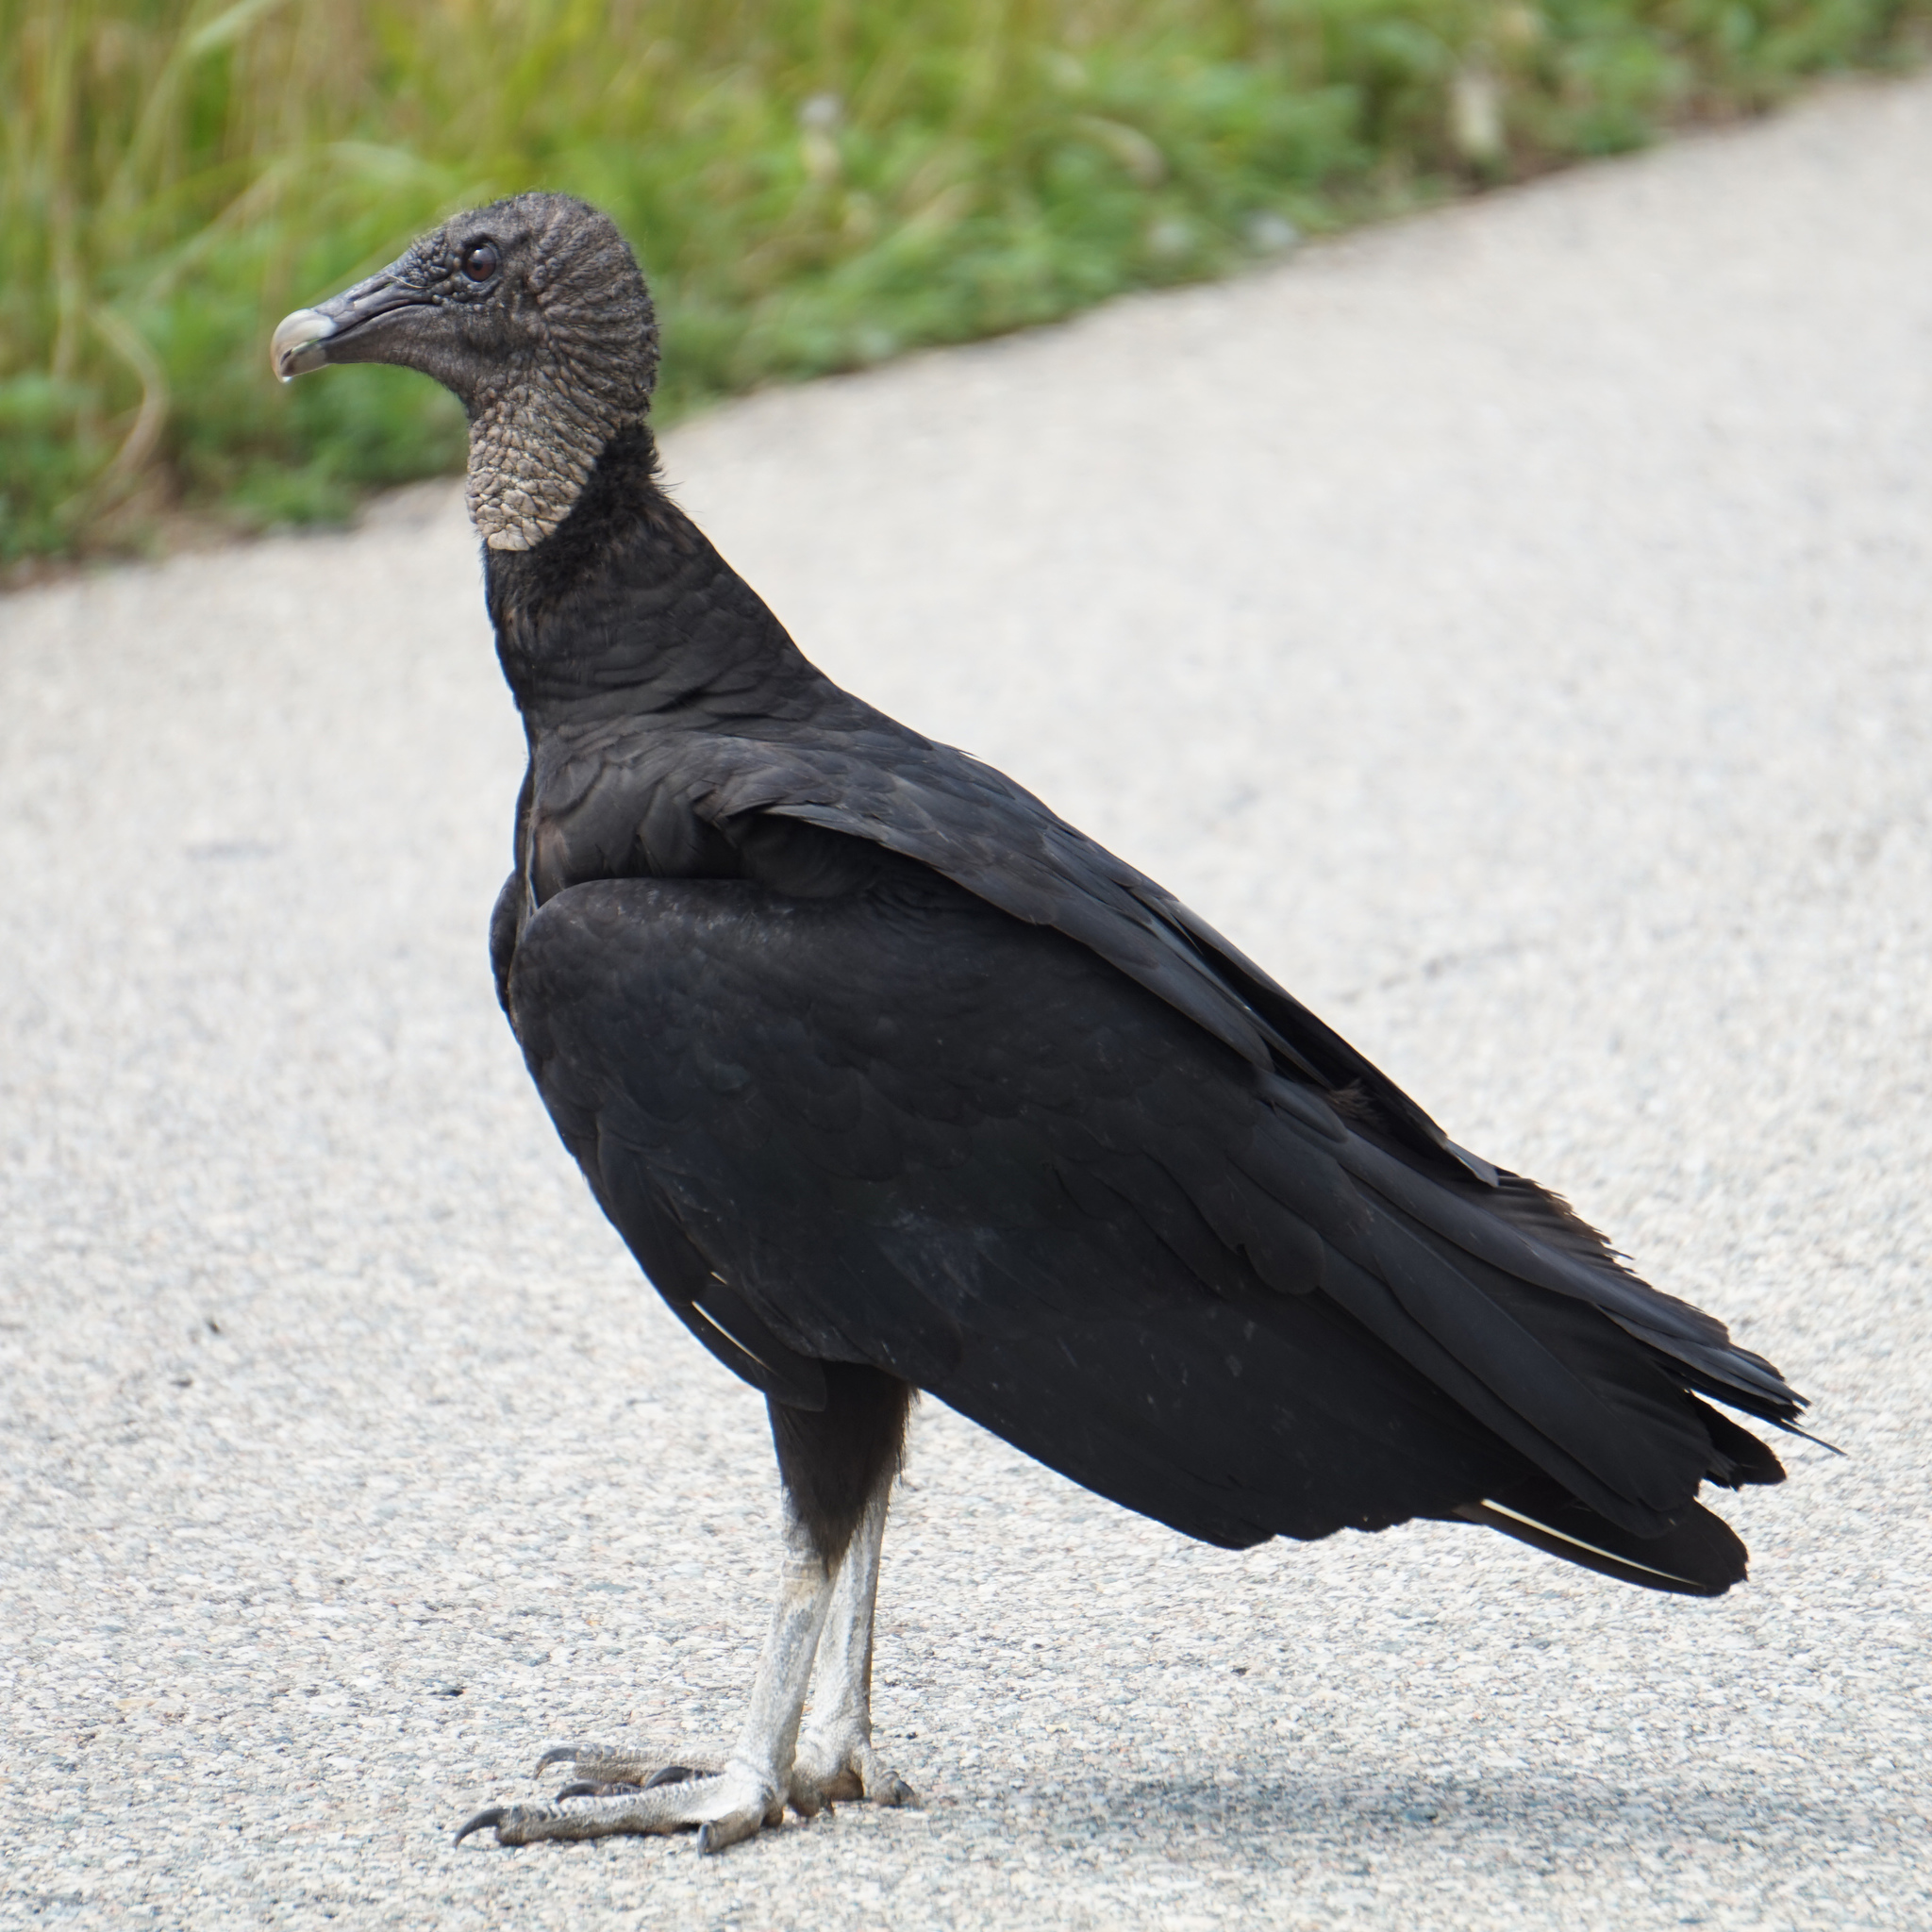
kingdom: Animalia
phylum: Chordata
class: Aves
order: Accipitriformes
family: Cathartidae
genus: Coragyps
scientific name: Coragyps atratus
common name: Black vulture
